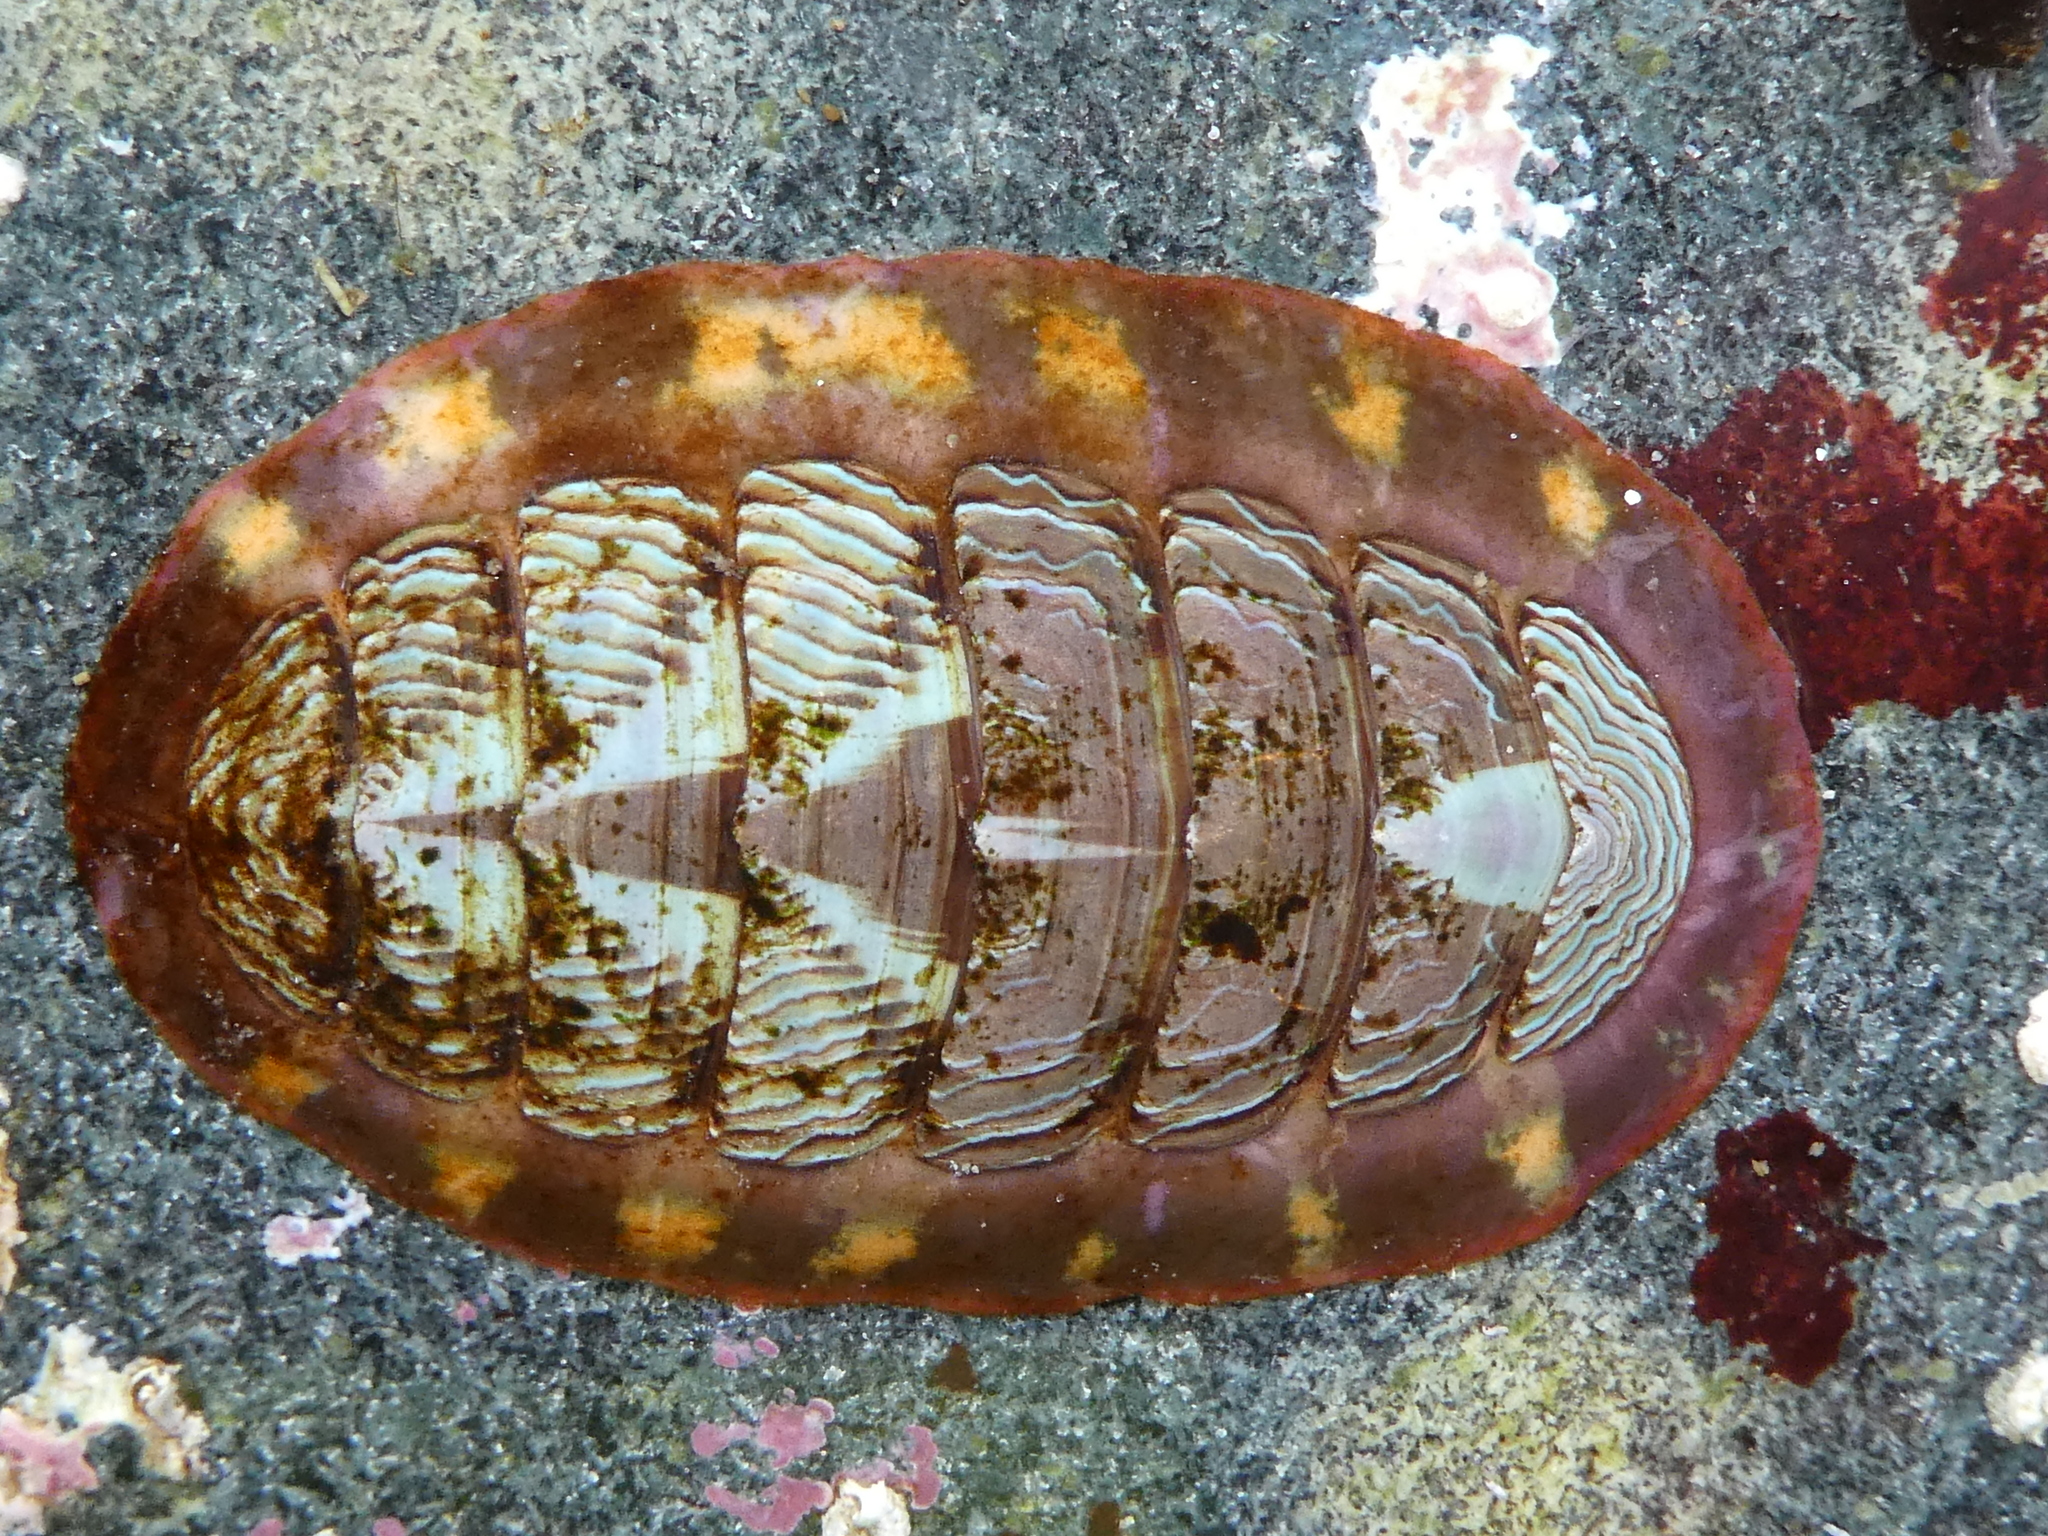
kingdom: Animalia
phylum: Mollusca
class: Polyplacophora
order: Chitonida
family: Tonicellidae
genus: Tonicella
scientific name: Tonicella lineata
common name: Lined chiton
